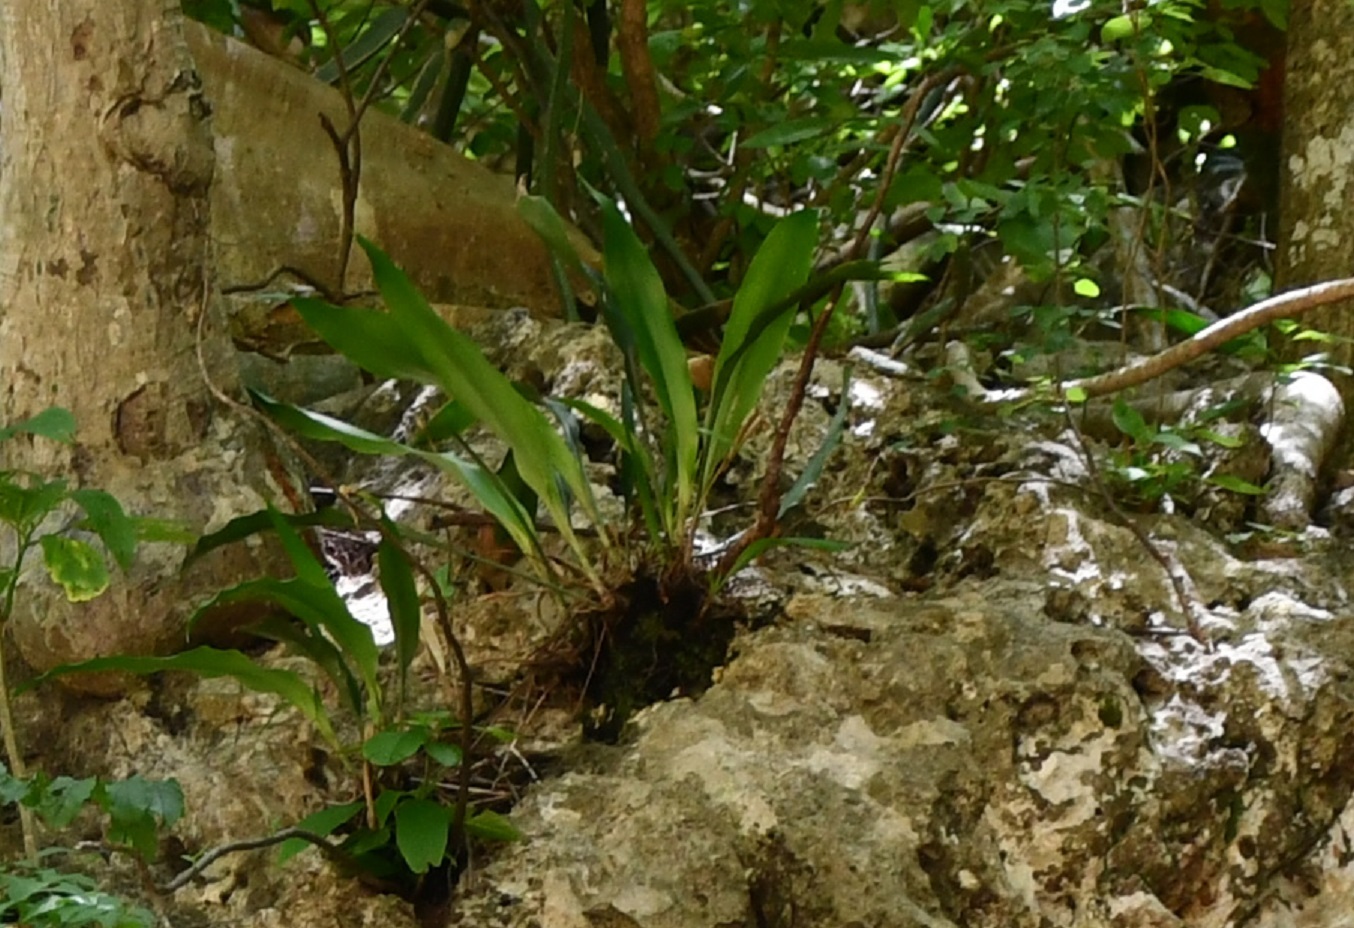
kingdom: Plantae
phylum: Tracheophyta
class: Liliopsida
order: Poales
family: Bromeliaceae
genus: Pitcairnia
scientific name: Pitcairnia chiapensis
